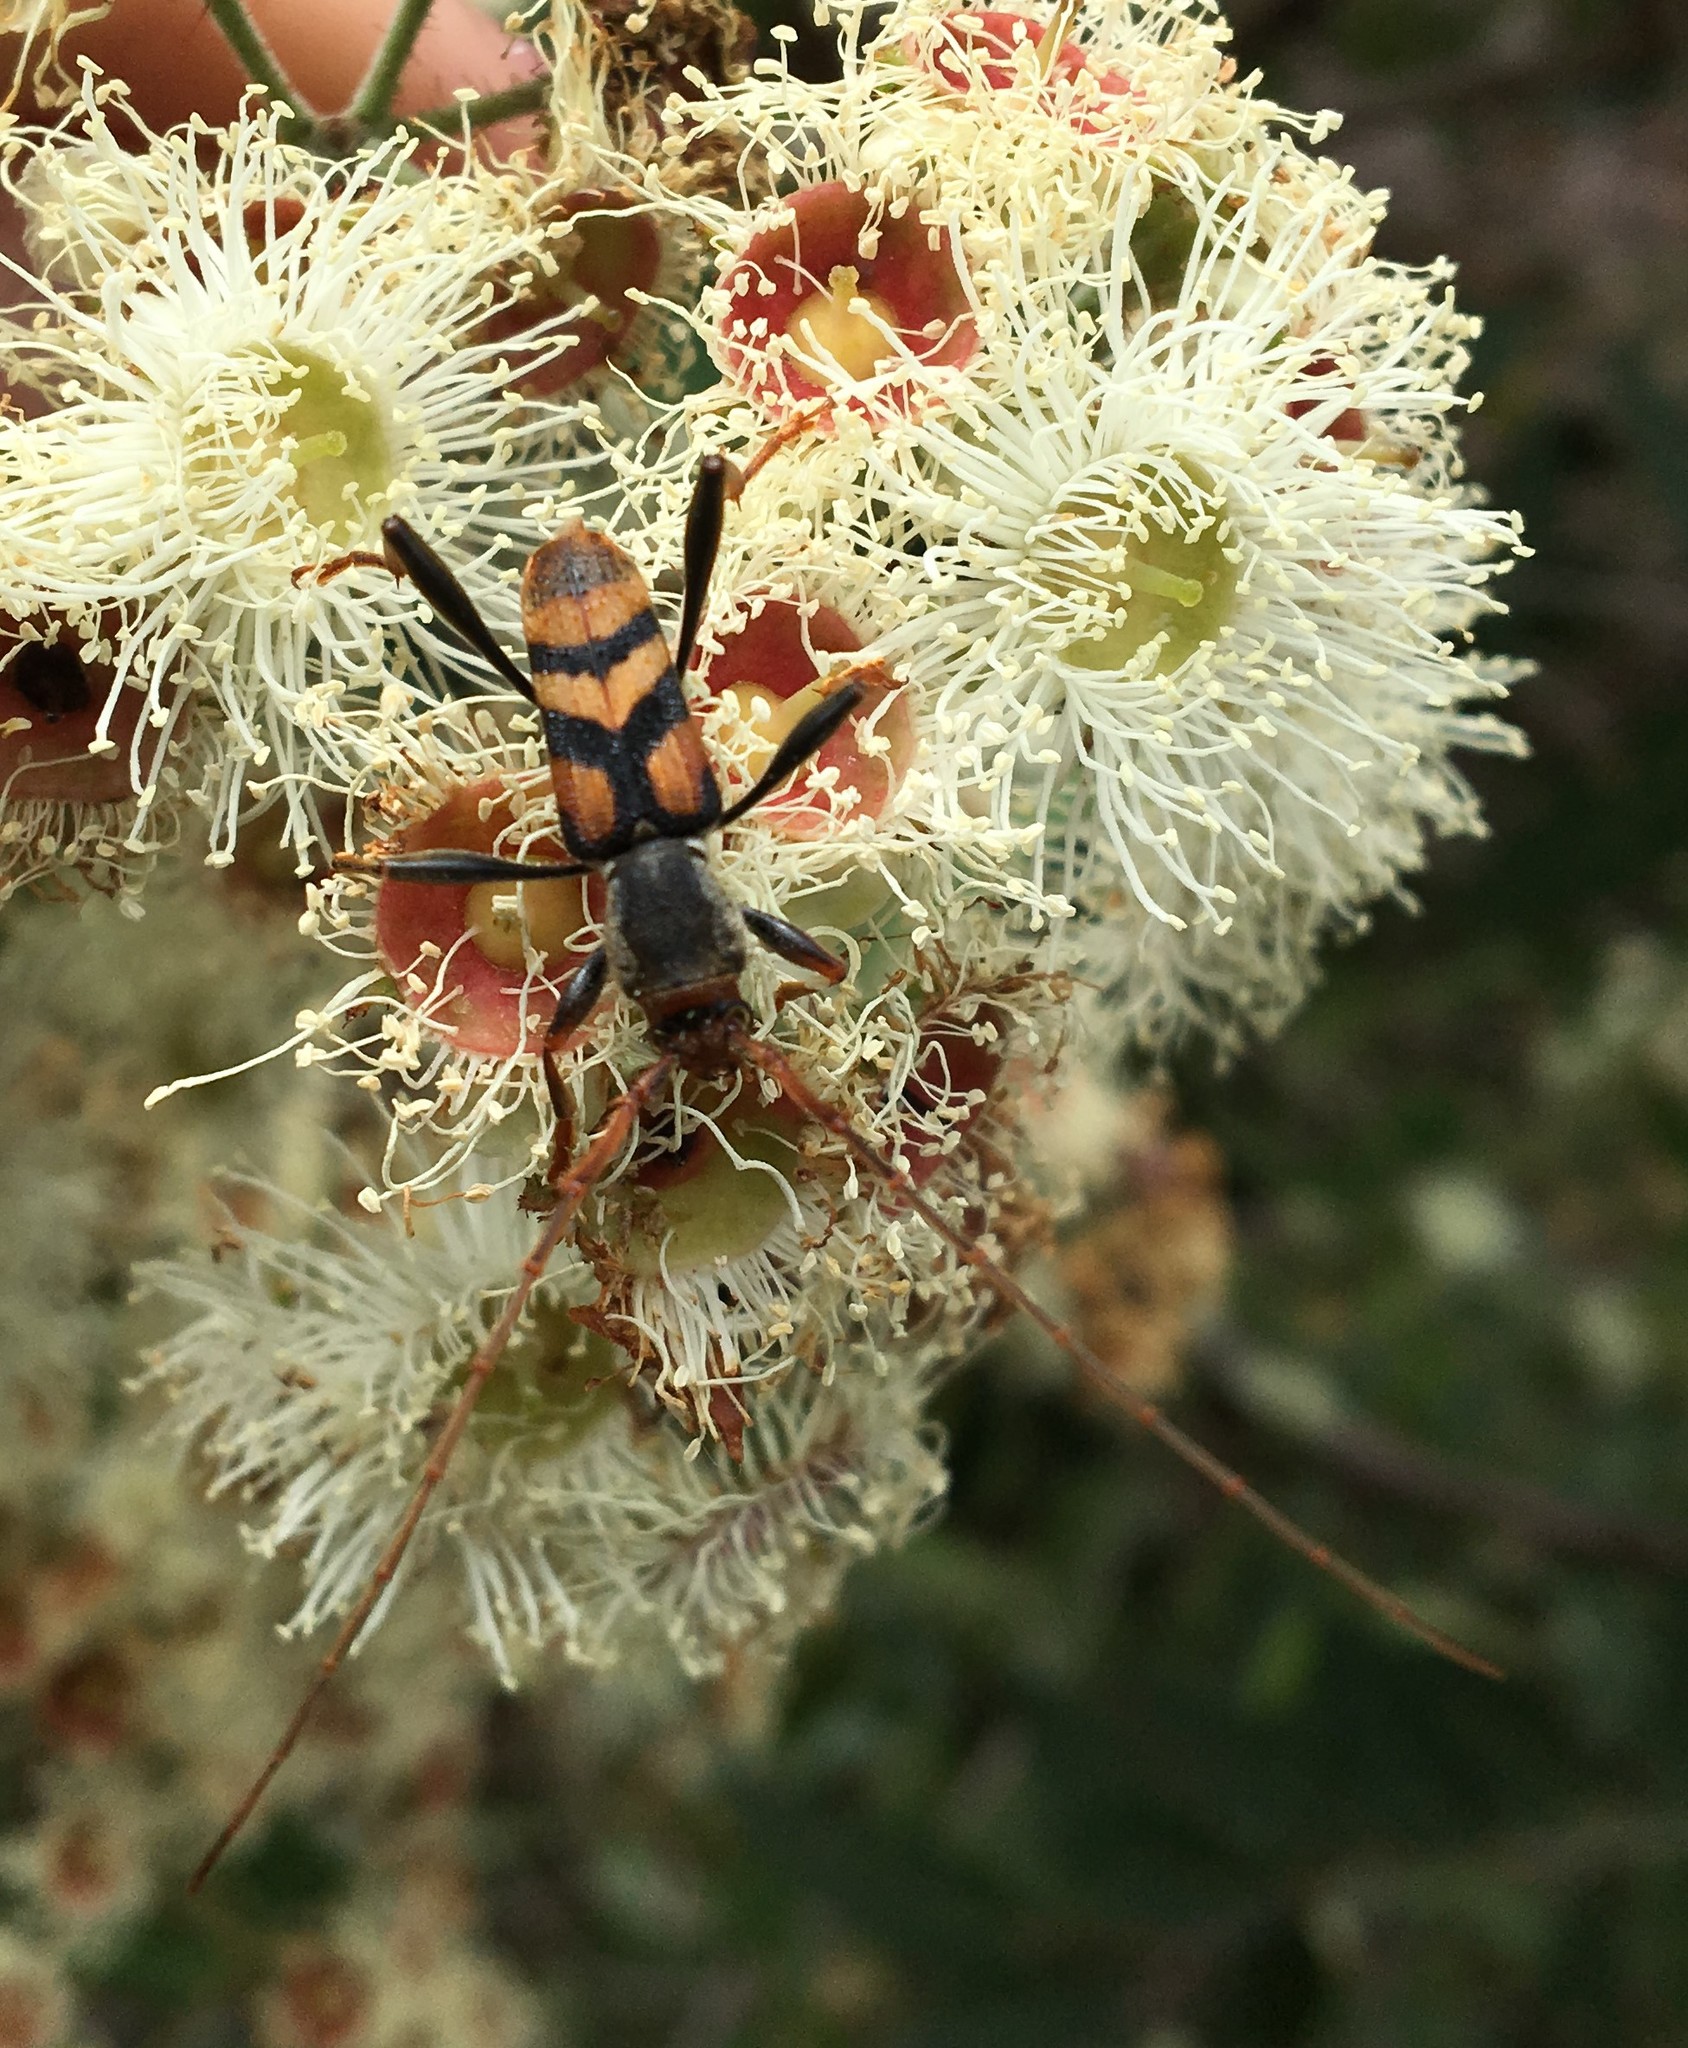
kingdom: Animalia
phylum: Arthropoda
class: Insecta
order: Coleoptera
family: Cerambycidae
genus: Aridaeus
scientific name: Aridaeus thoracicus
